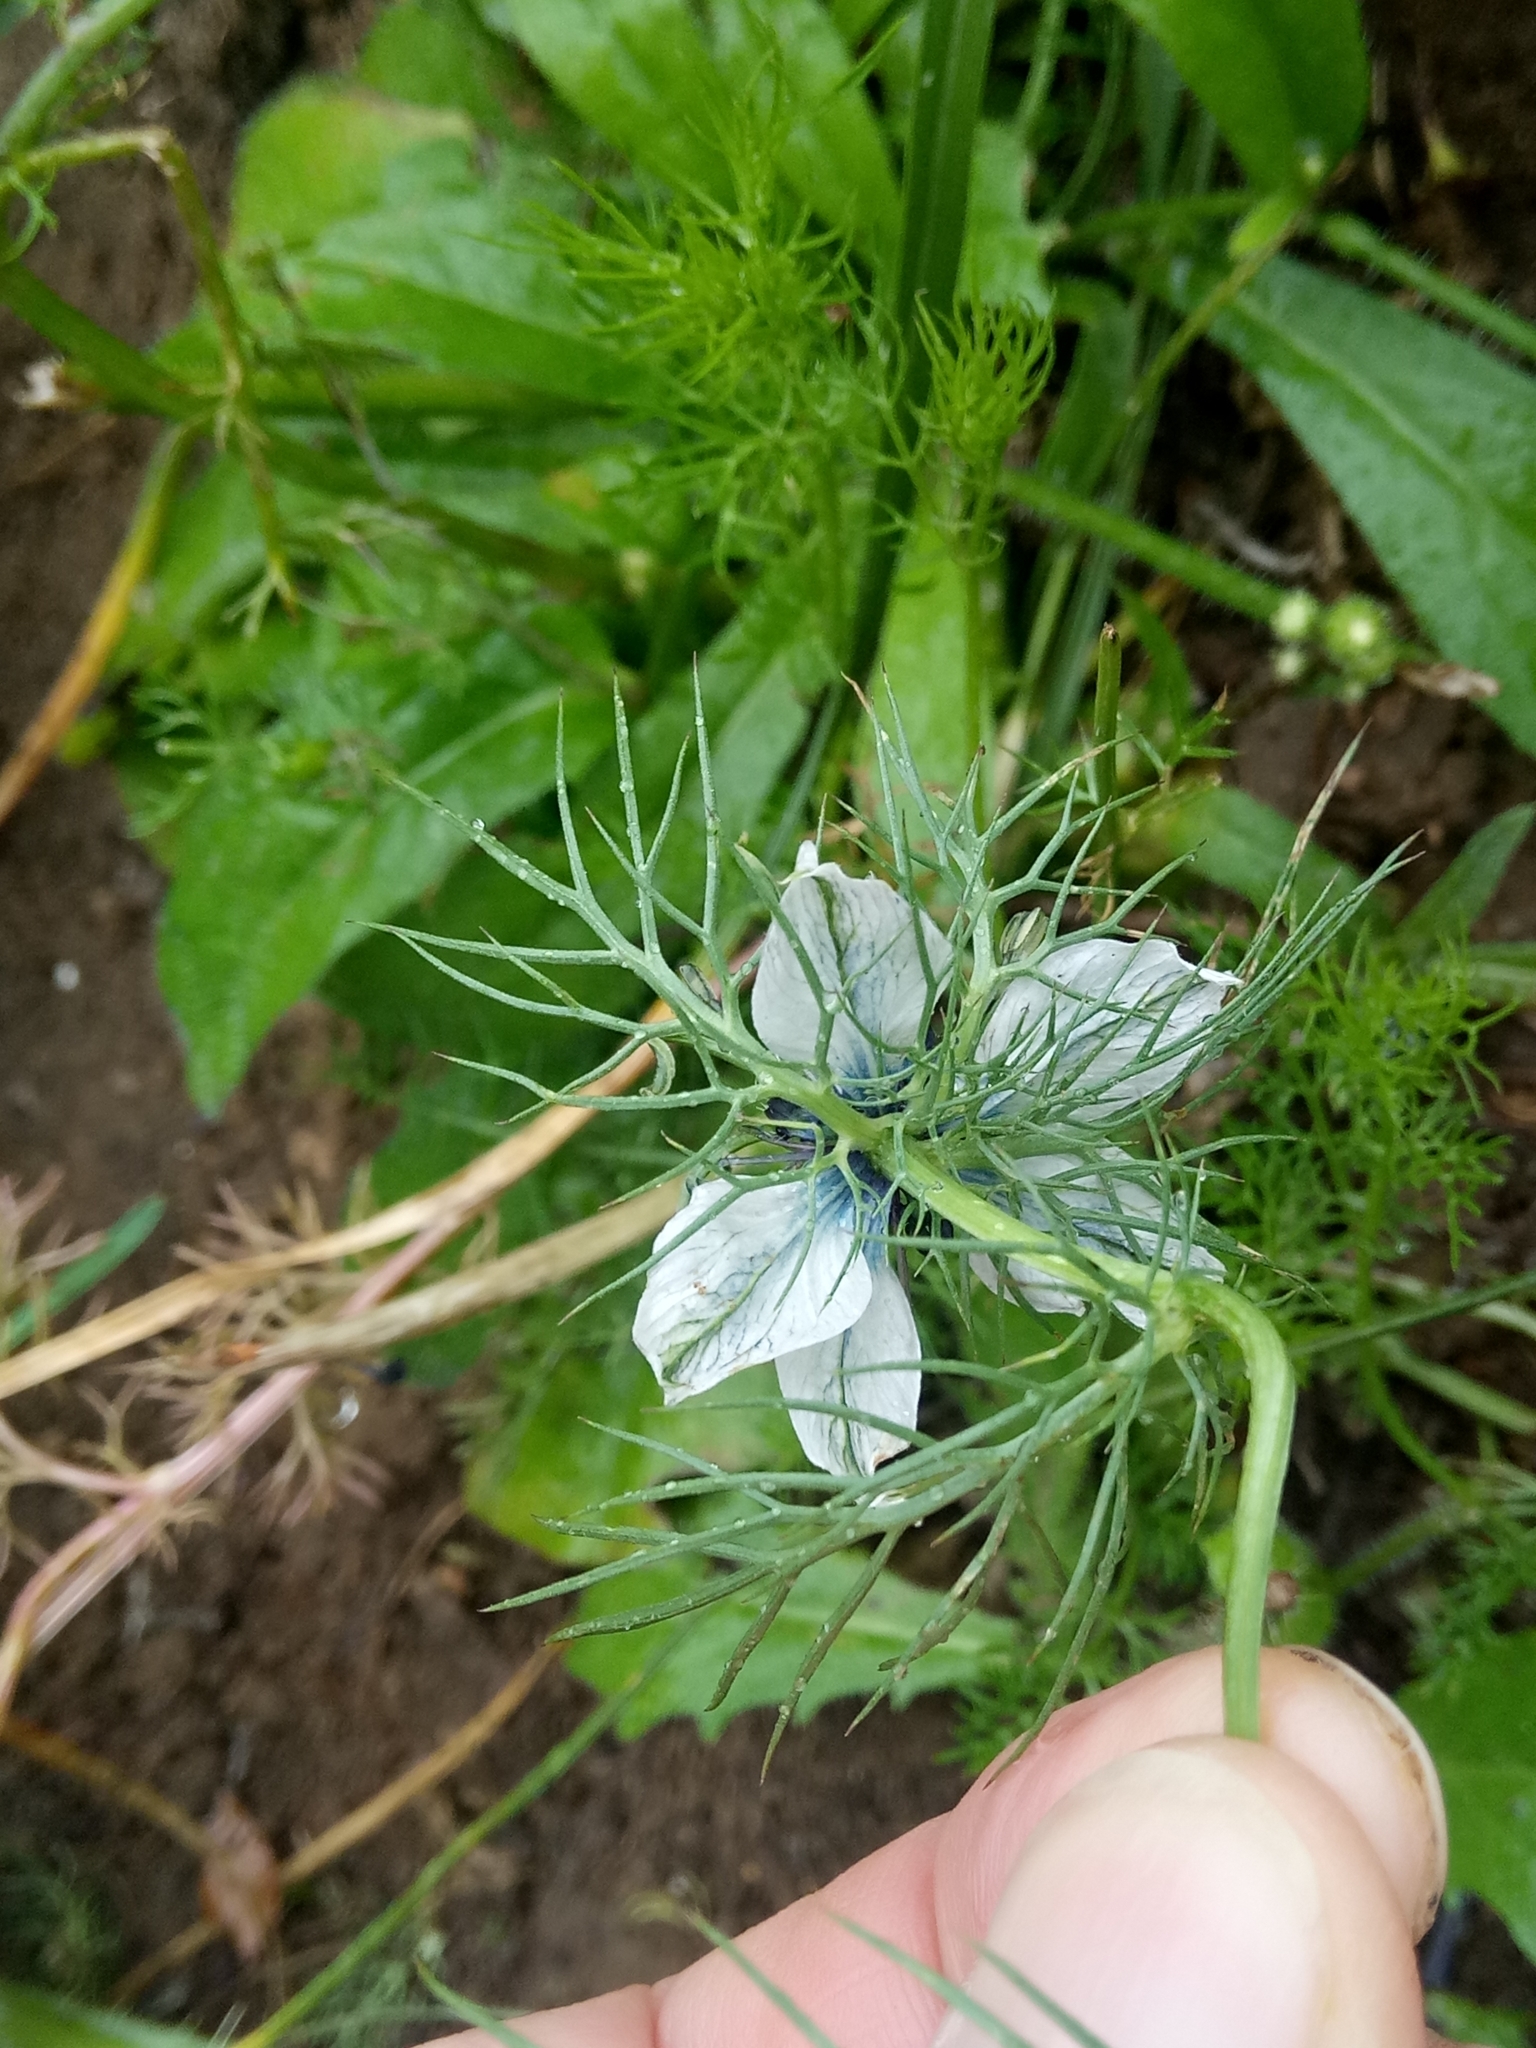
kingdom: Plantae
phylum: Tracheophyta
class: Magnoliopsida
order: Ranunculales
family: Ranunculaceae
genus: Nigella
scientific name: Nigella damascena
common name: Love-in-a-mist
